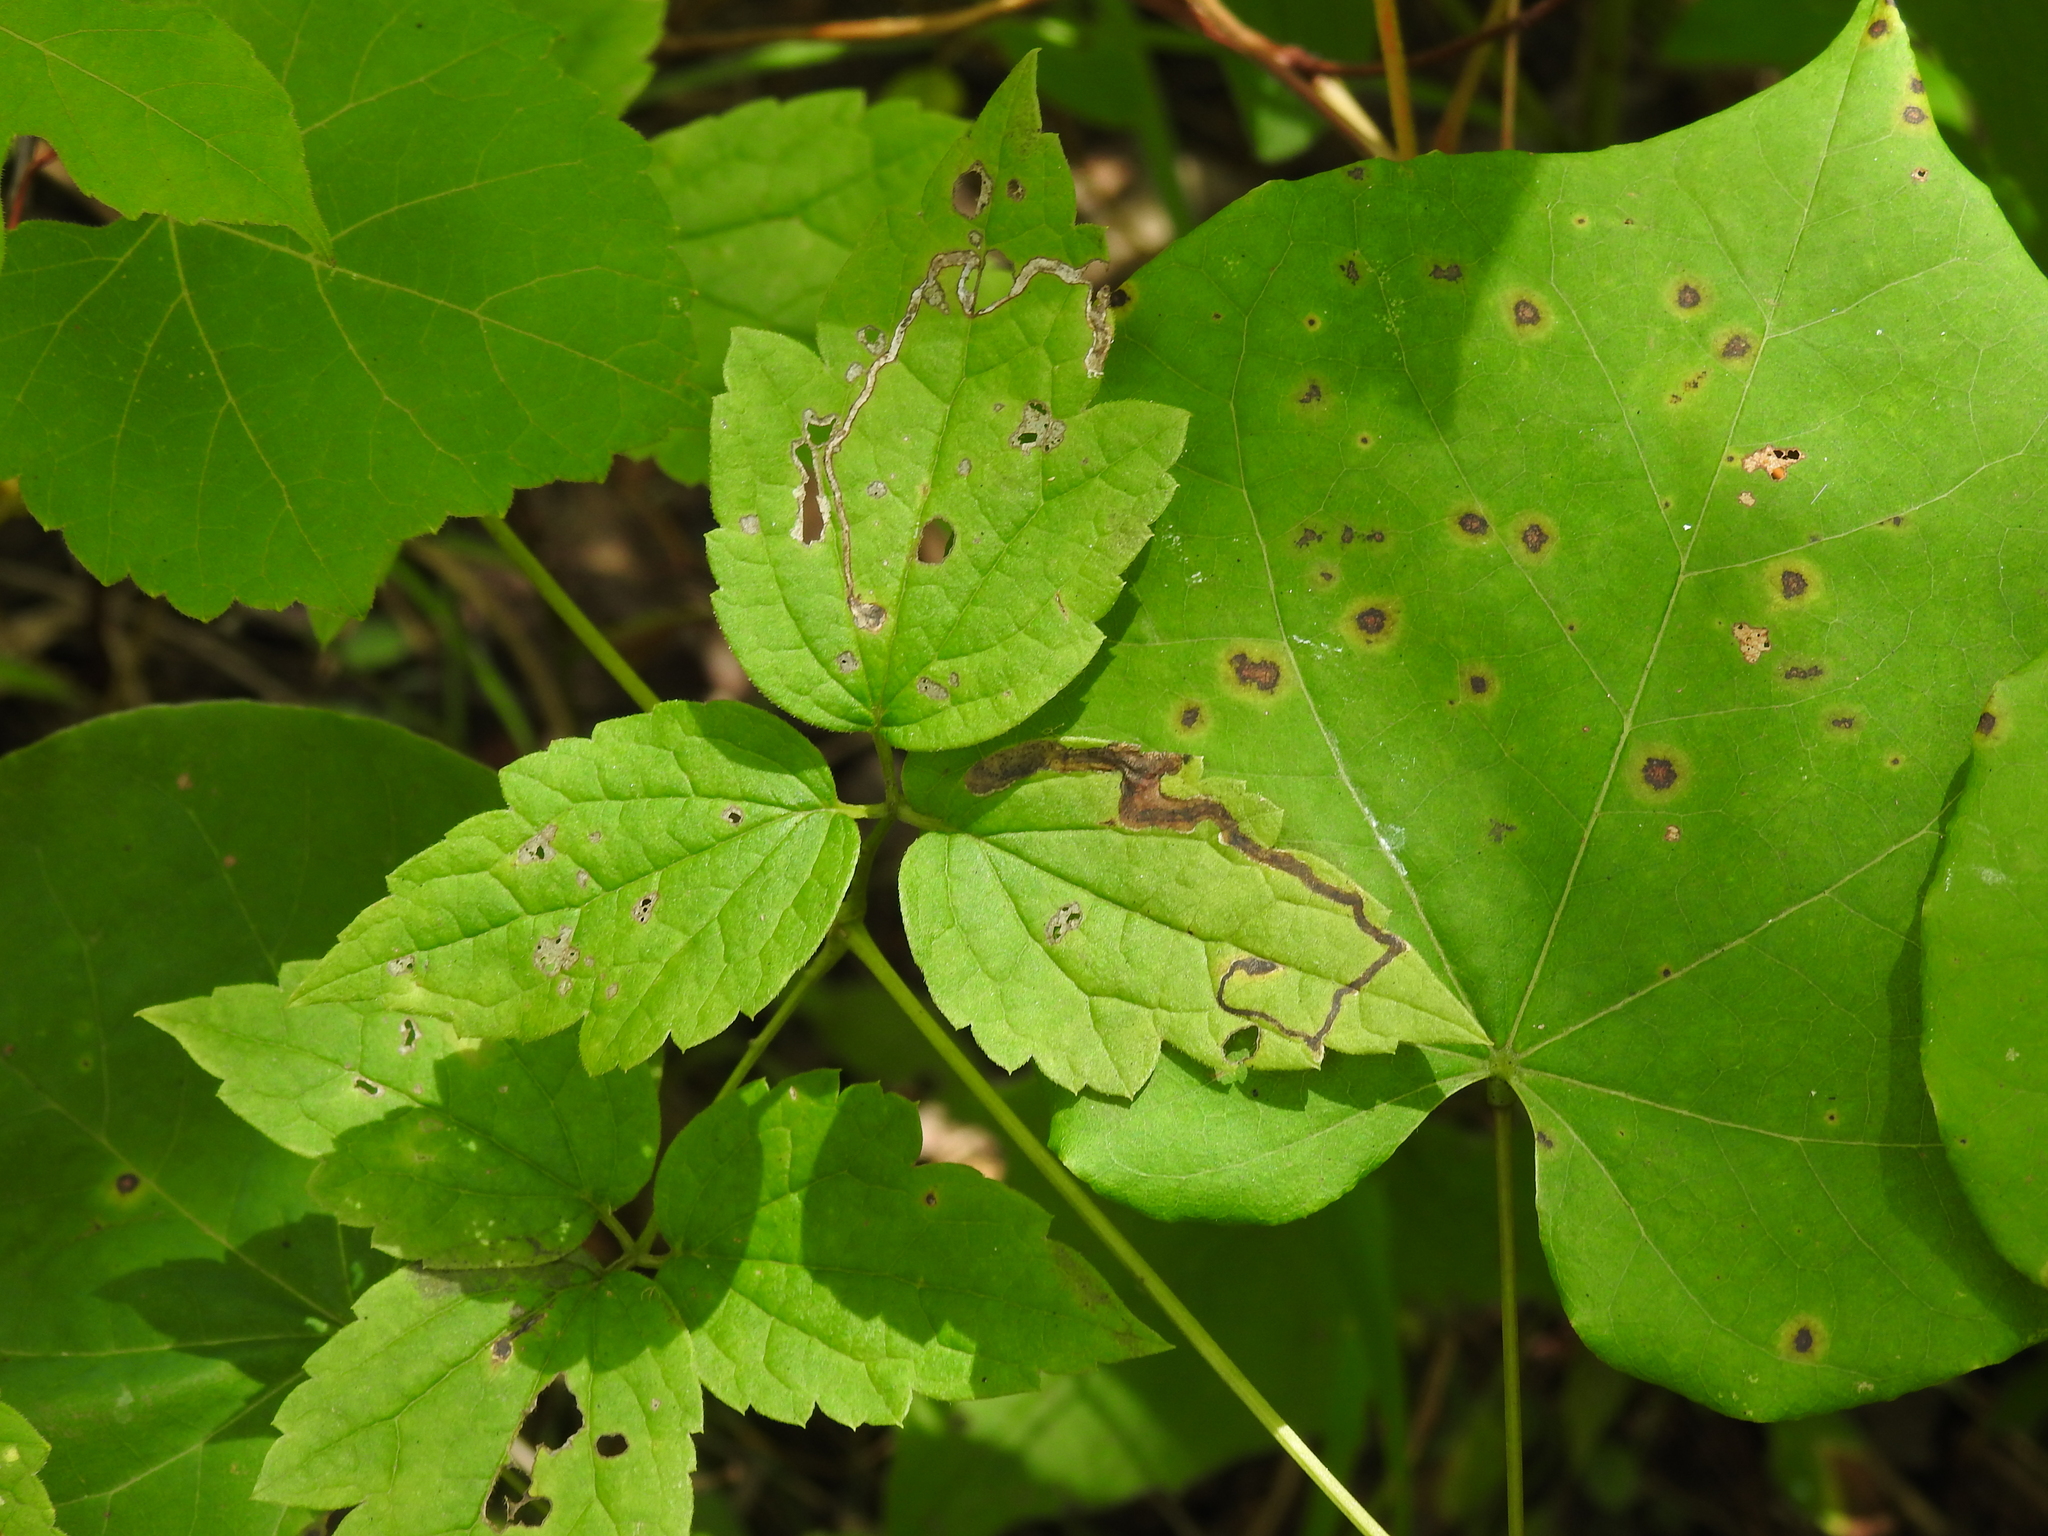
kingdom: Animalia
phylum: Arthropoda
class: Insecta
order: Diptera
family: Agromyzidae
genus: Phytomyza
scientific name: Phytomyza loewii
